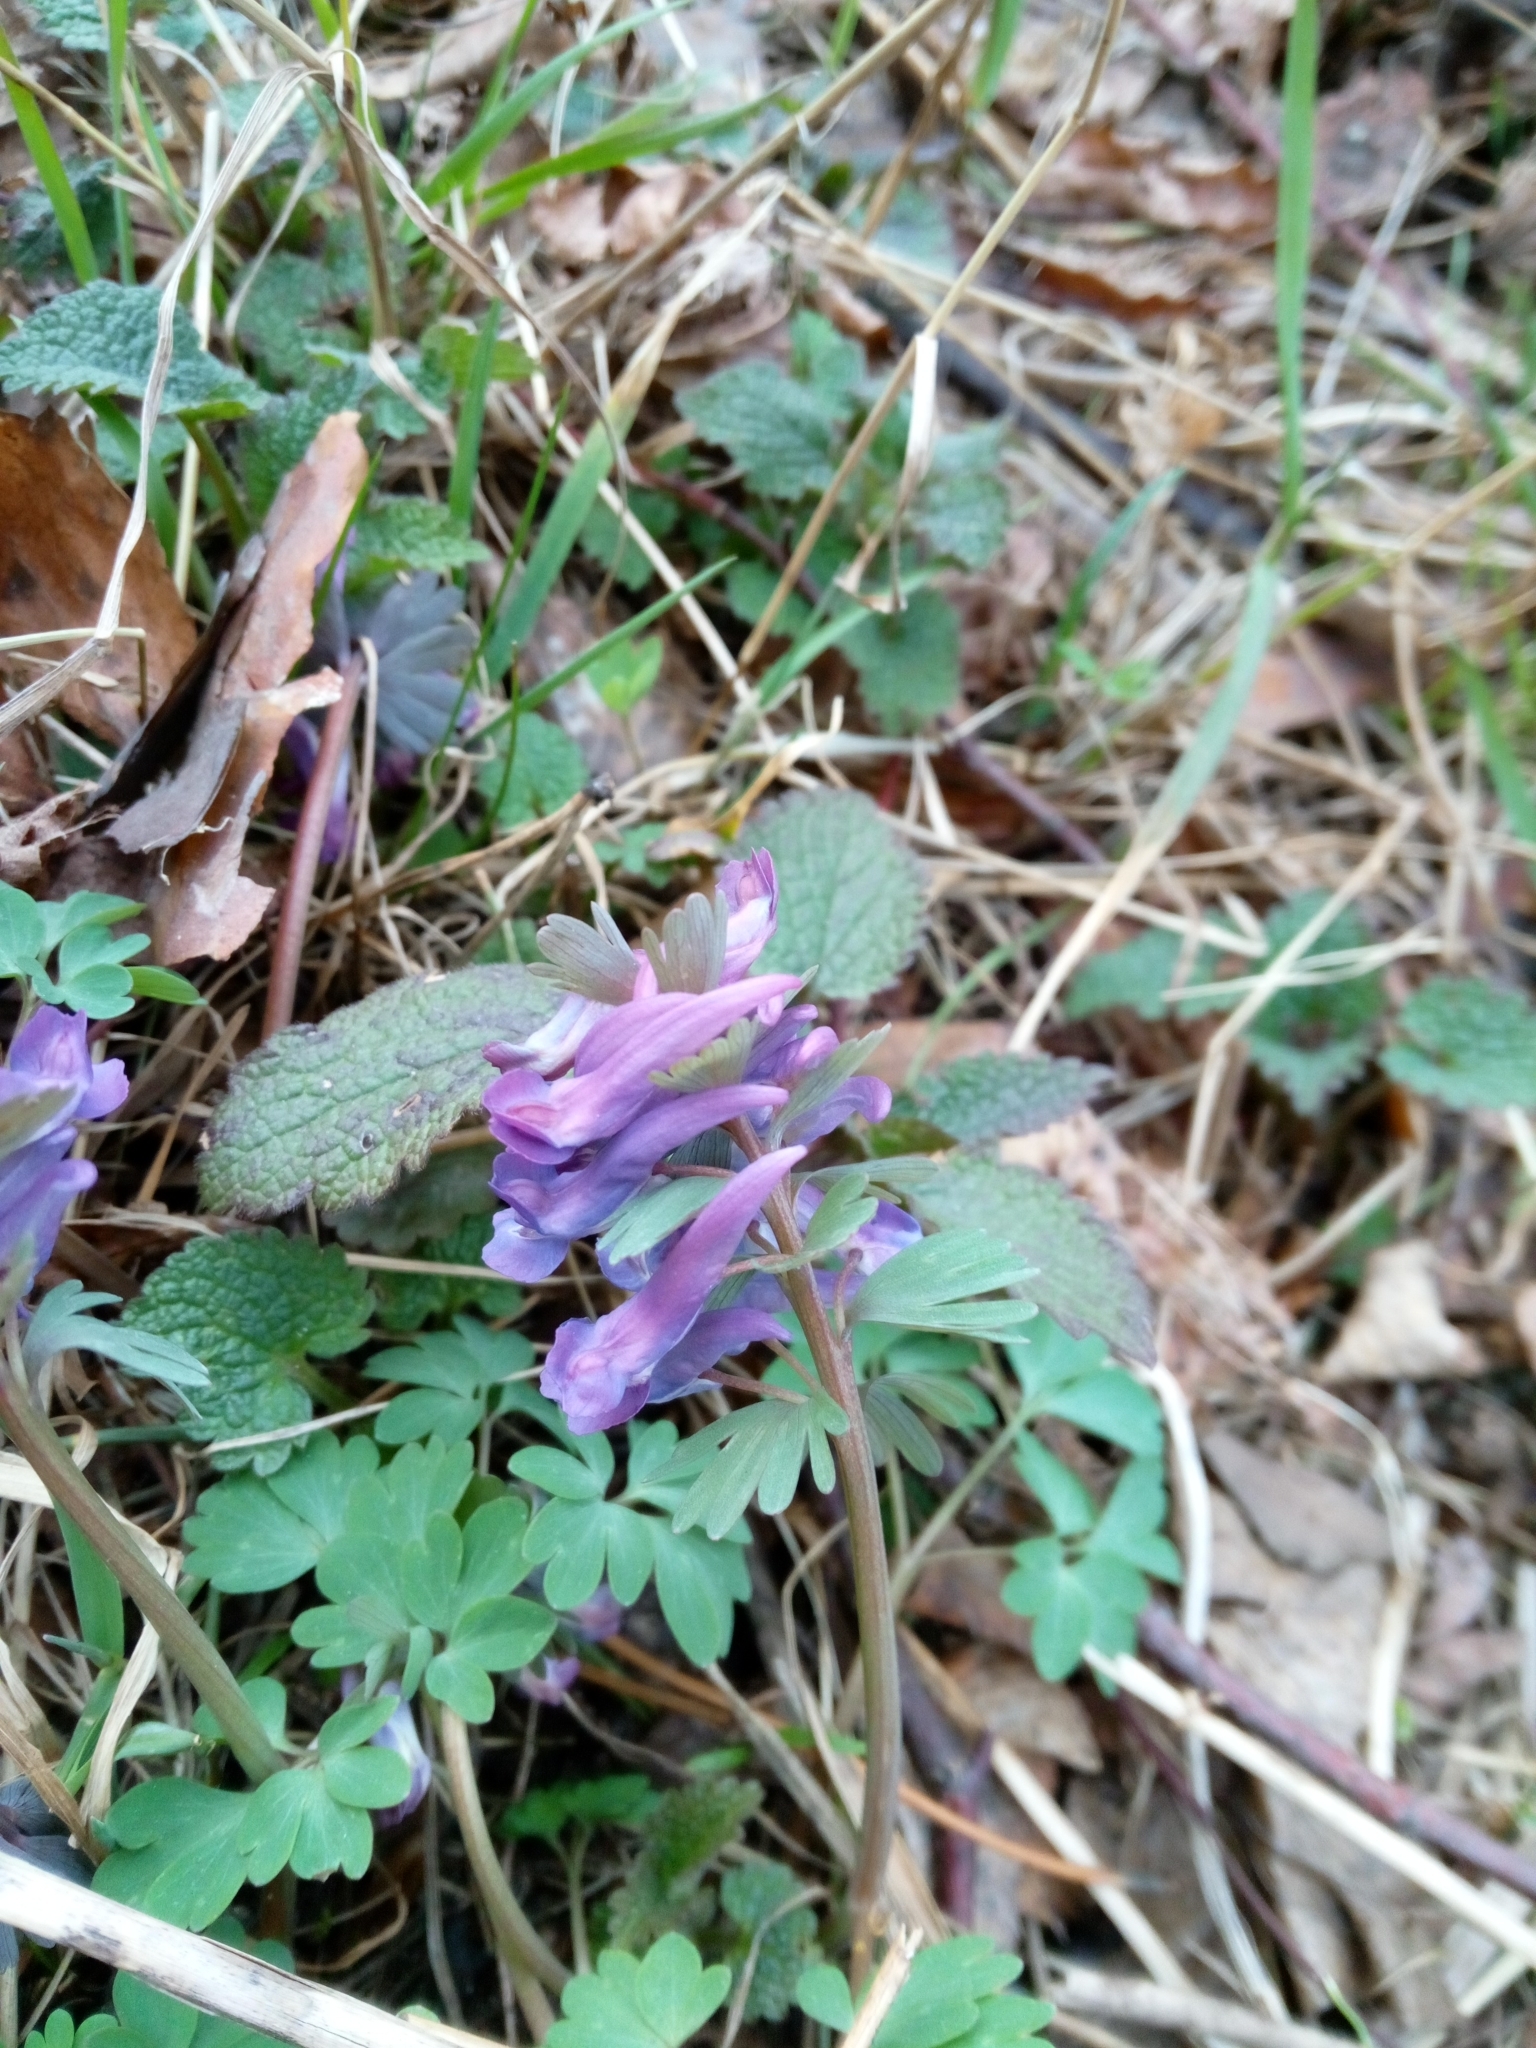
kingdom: Plantae
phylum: Tracheophyta
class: Magnoliopsida
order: Ranunculales
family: Papaveraceae
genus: Corydalis
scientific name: Corydalis solida
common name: Bird-in-a-bush
